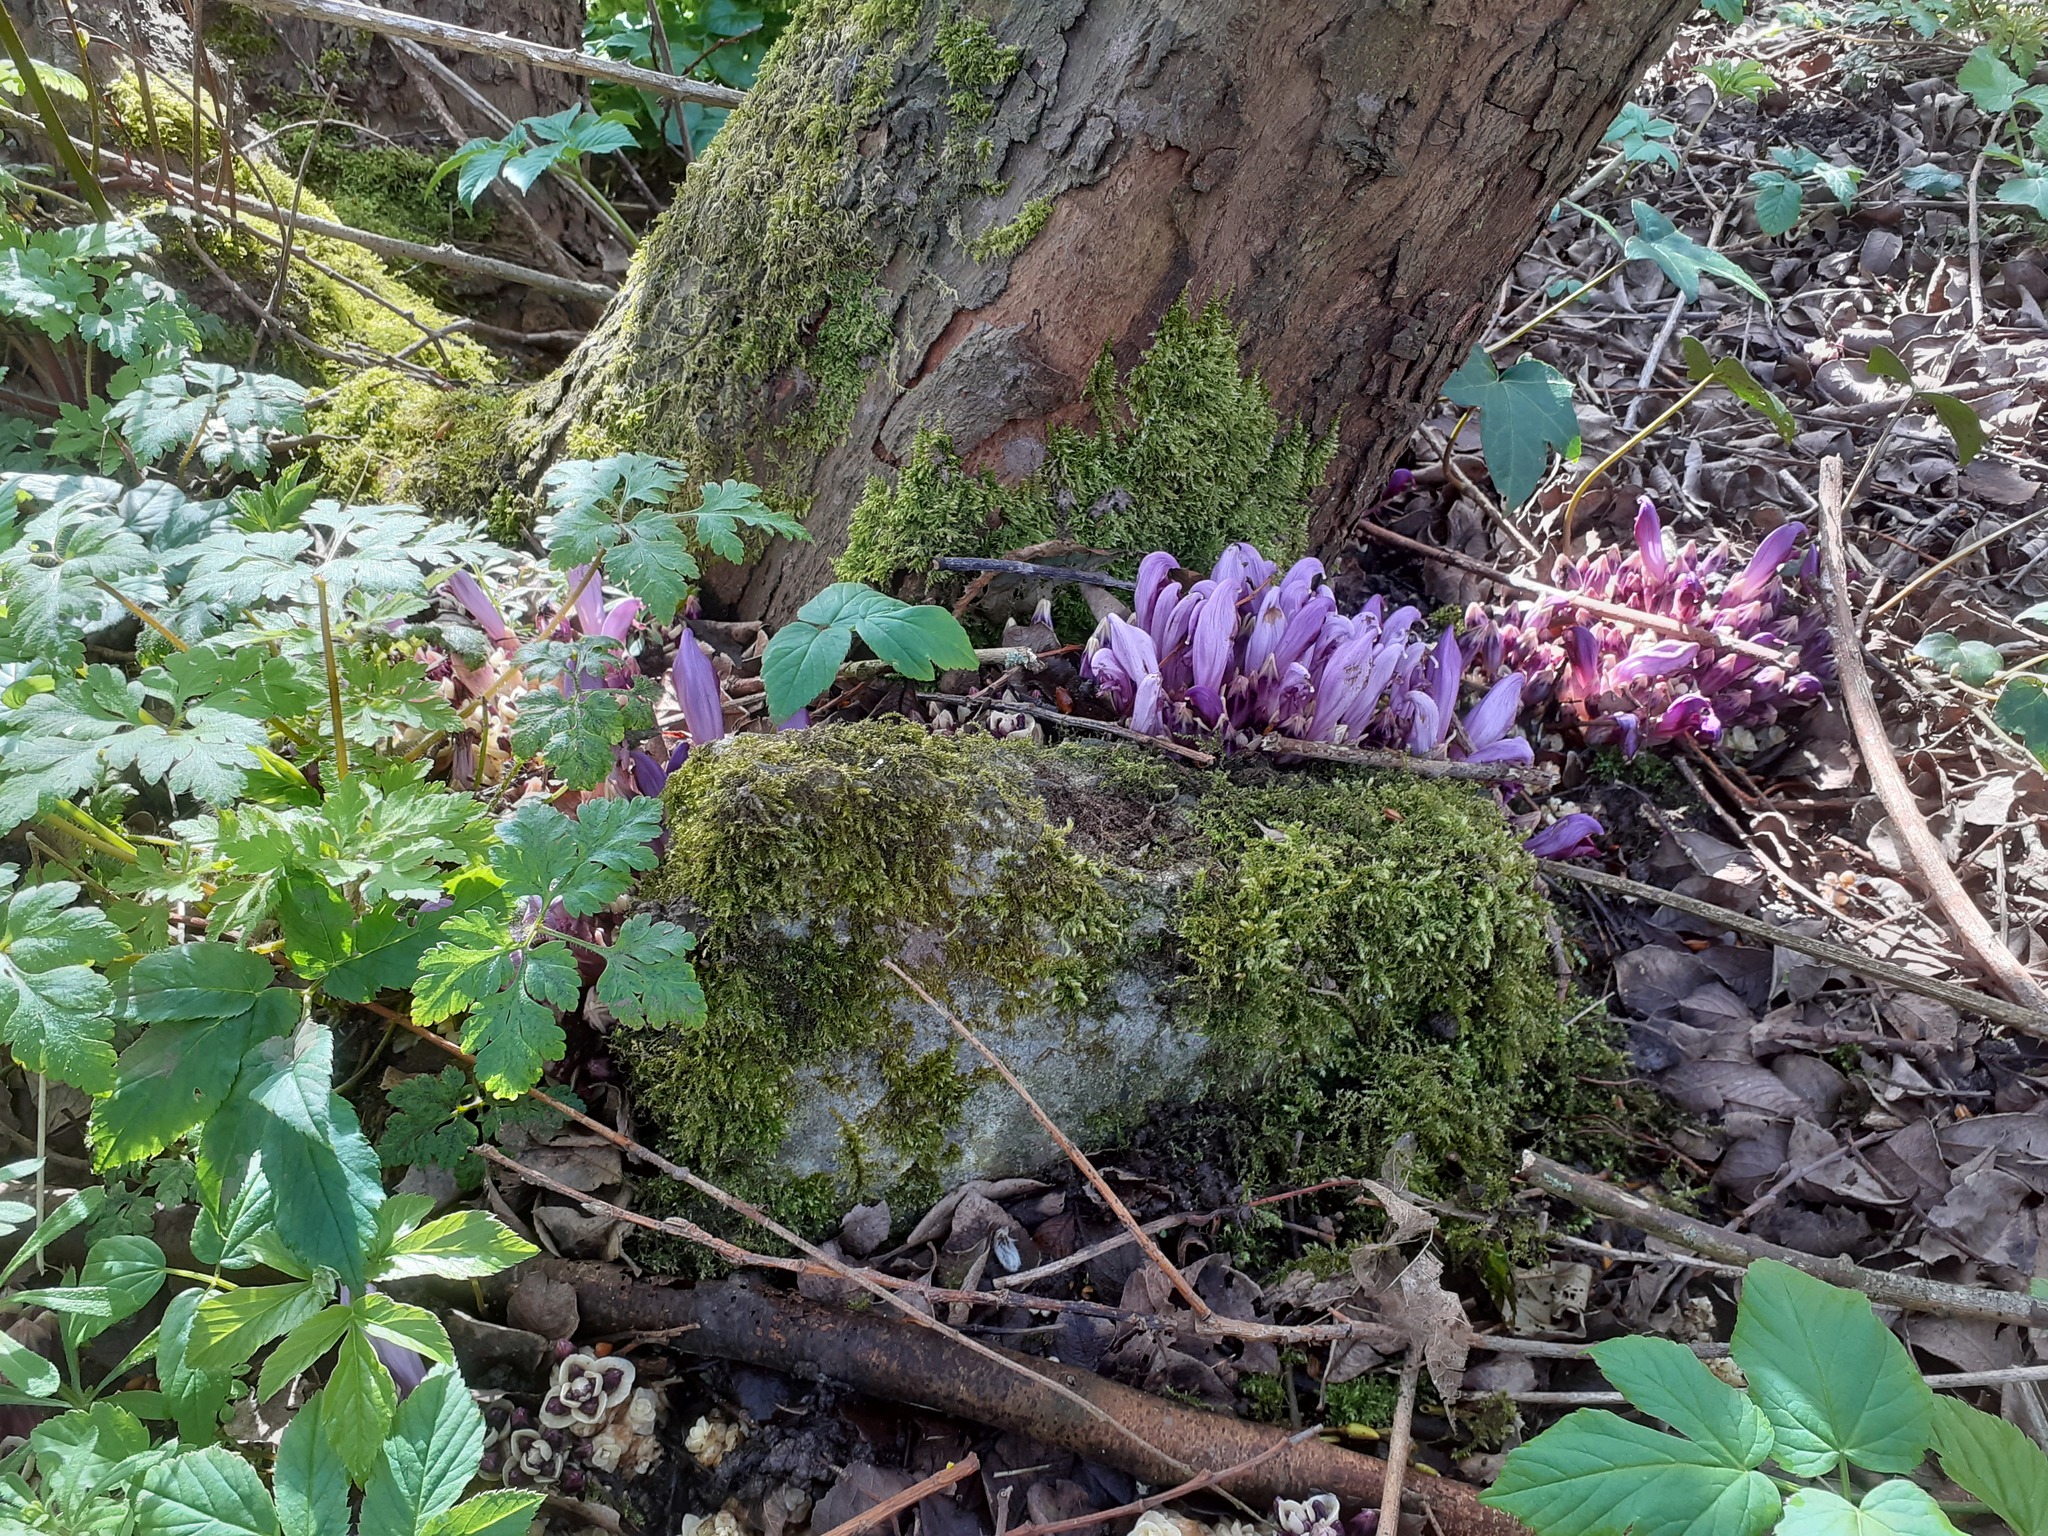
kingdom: Plantae
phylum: Tracheophyta
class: Magnoliopsida
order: Lamiales
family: Orobanchaceae
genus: Lathraea
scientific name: Lathraea clandestina
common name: Purple toothwort
